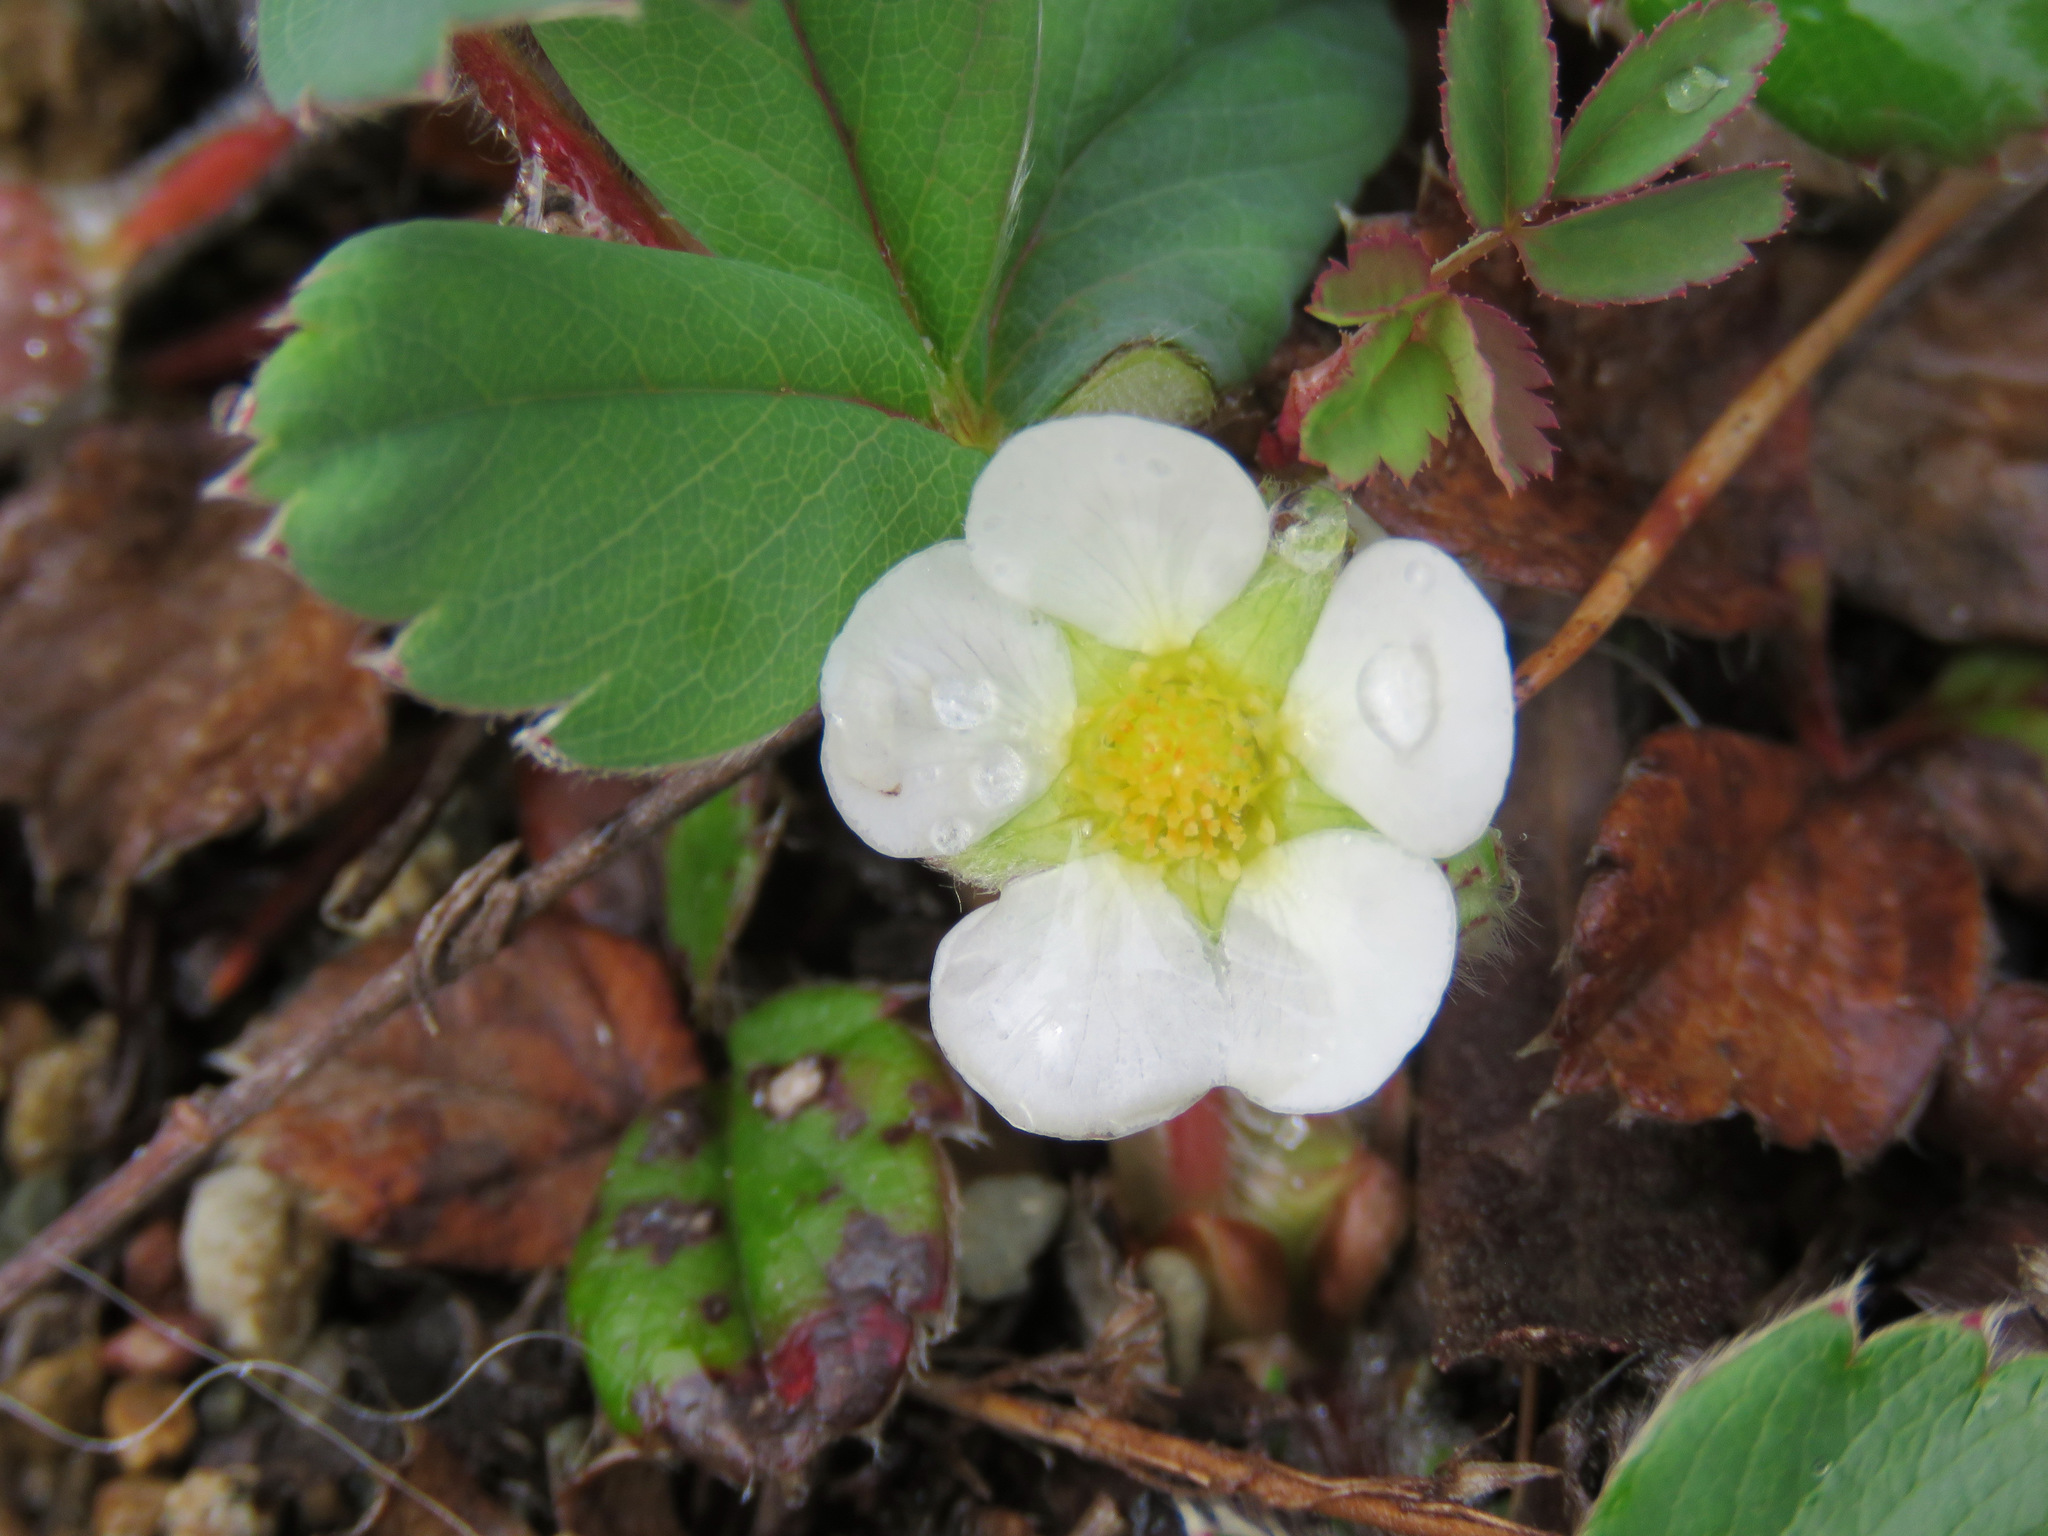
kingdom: Plantae
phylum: Tracheophyta
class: Magnoliopsida
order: Rosales
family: Rosaceae
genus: Fragaria
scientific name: Fragaria chiloensis
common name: Beach strawberry
